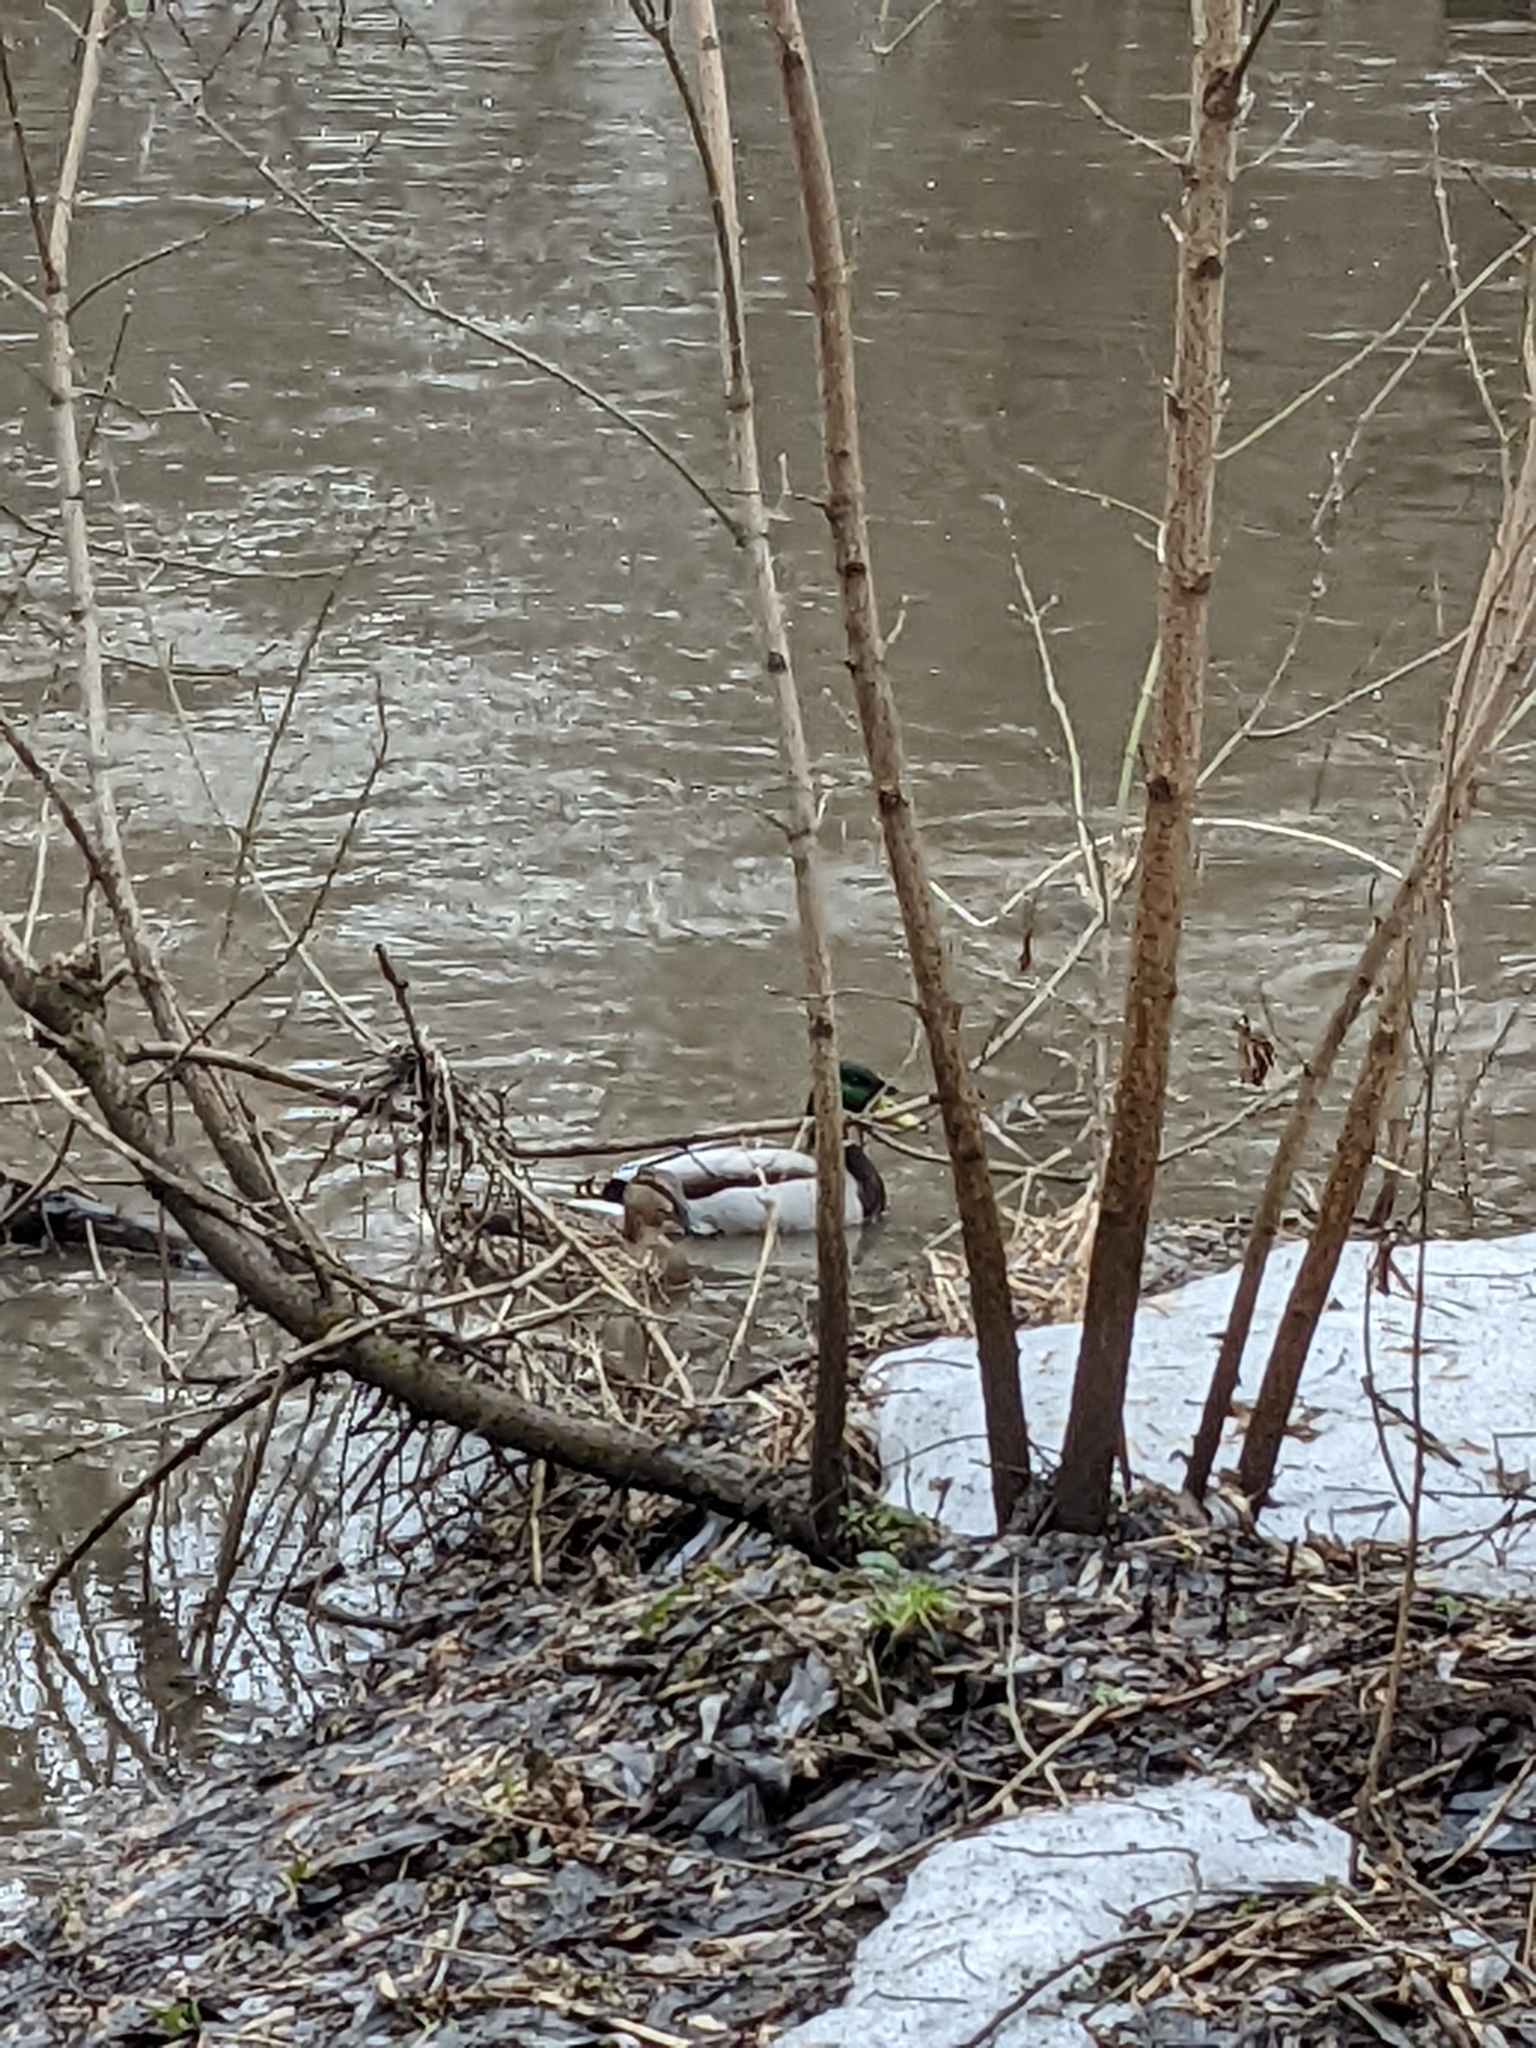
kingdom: Animalia
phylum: Chordata
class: Aves
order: Anseriformes
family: Anatidae
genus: Anas
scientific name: Anas platyrhynchos
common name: Mallard
